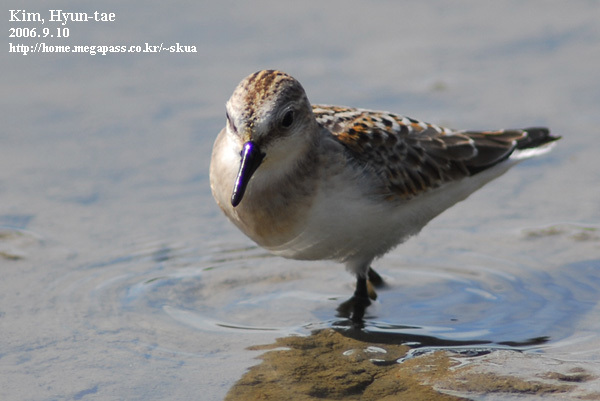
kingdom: Animalia
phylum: Chordata
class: Aves
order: Charadriiformes
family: Scolopacidae
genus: Calidris
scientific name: Calidris ruficollis
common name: Red-necked stint
